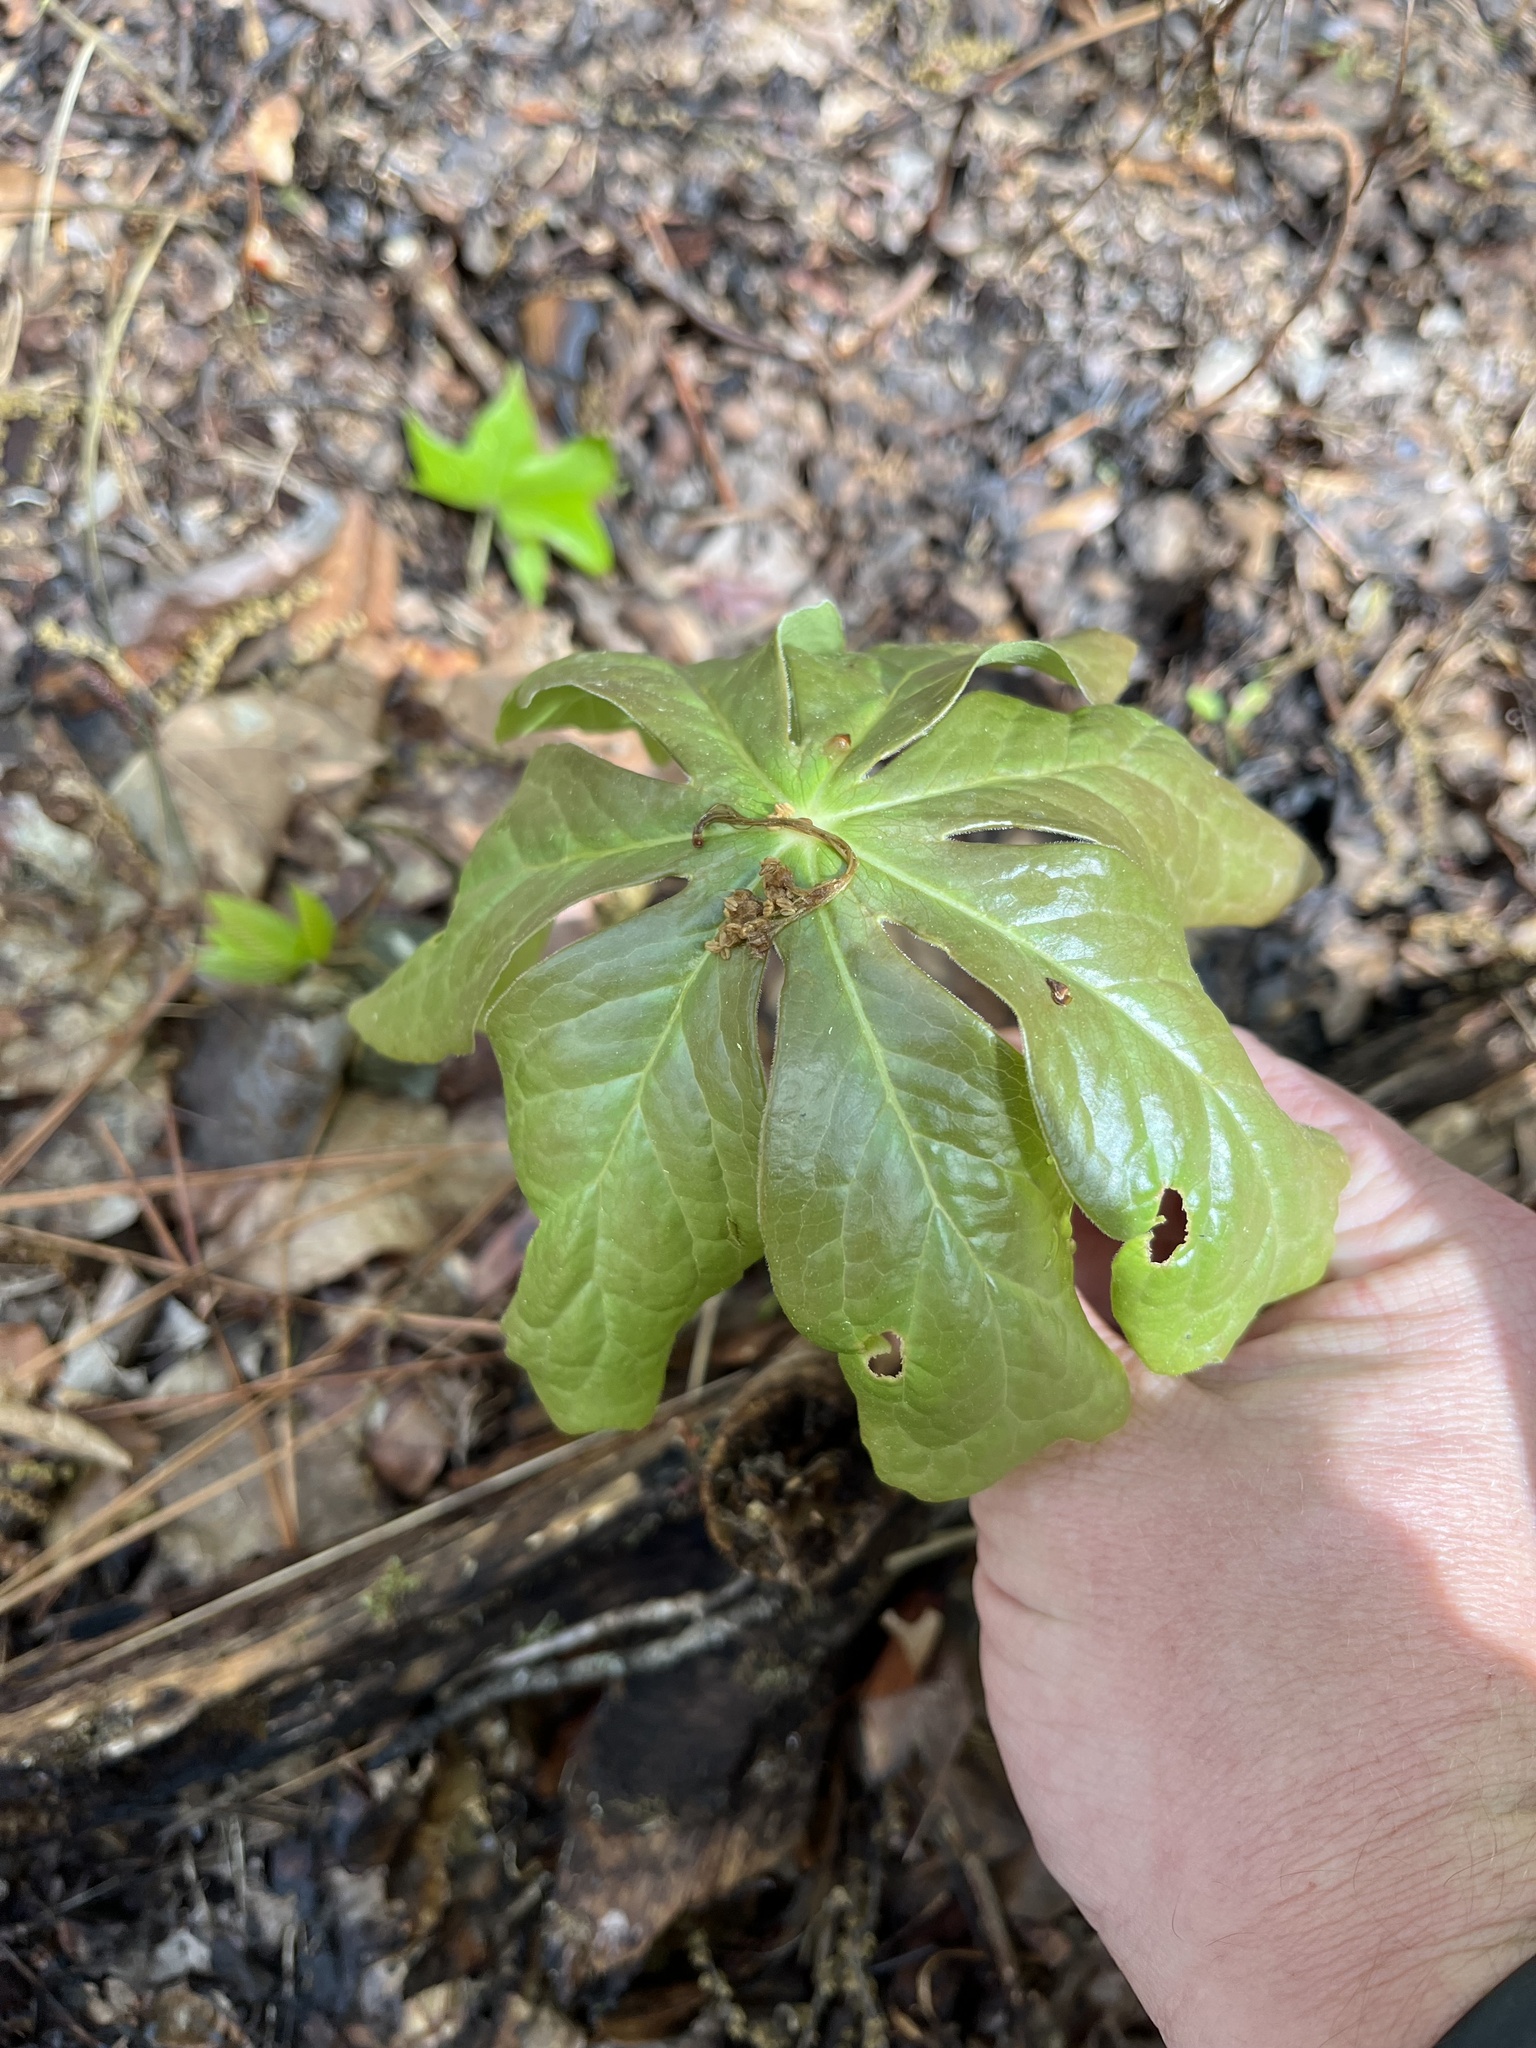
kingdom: Plantae
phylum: Tracheophyta
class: Magnoliopsida
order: Ranunculales
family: Berberidaceae
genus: Podophyllum
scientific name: Podophyllum peltatum
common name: Wild mandrake
